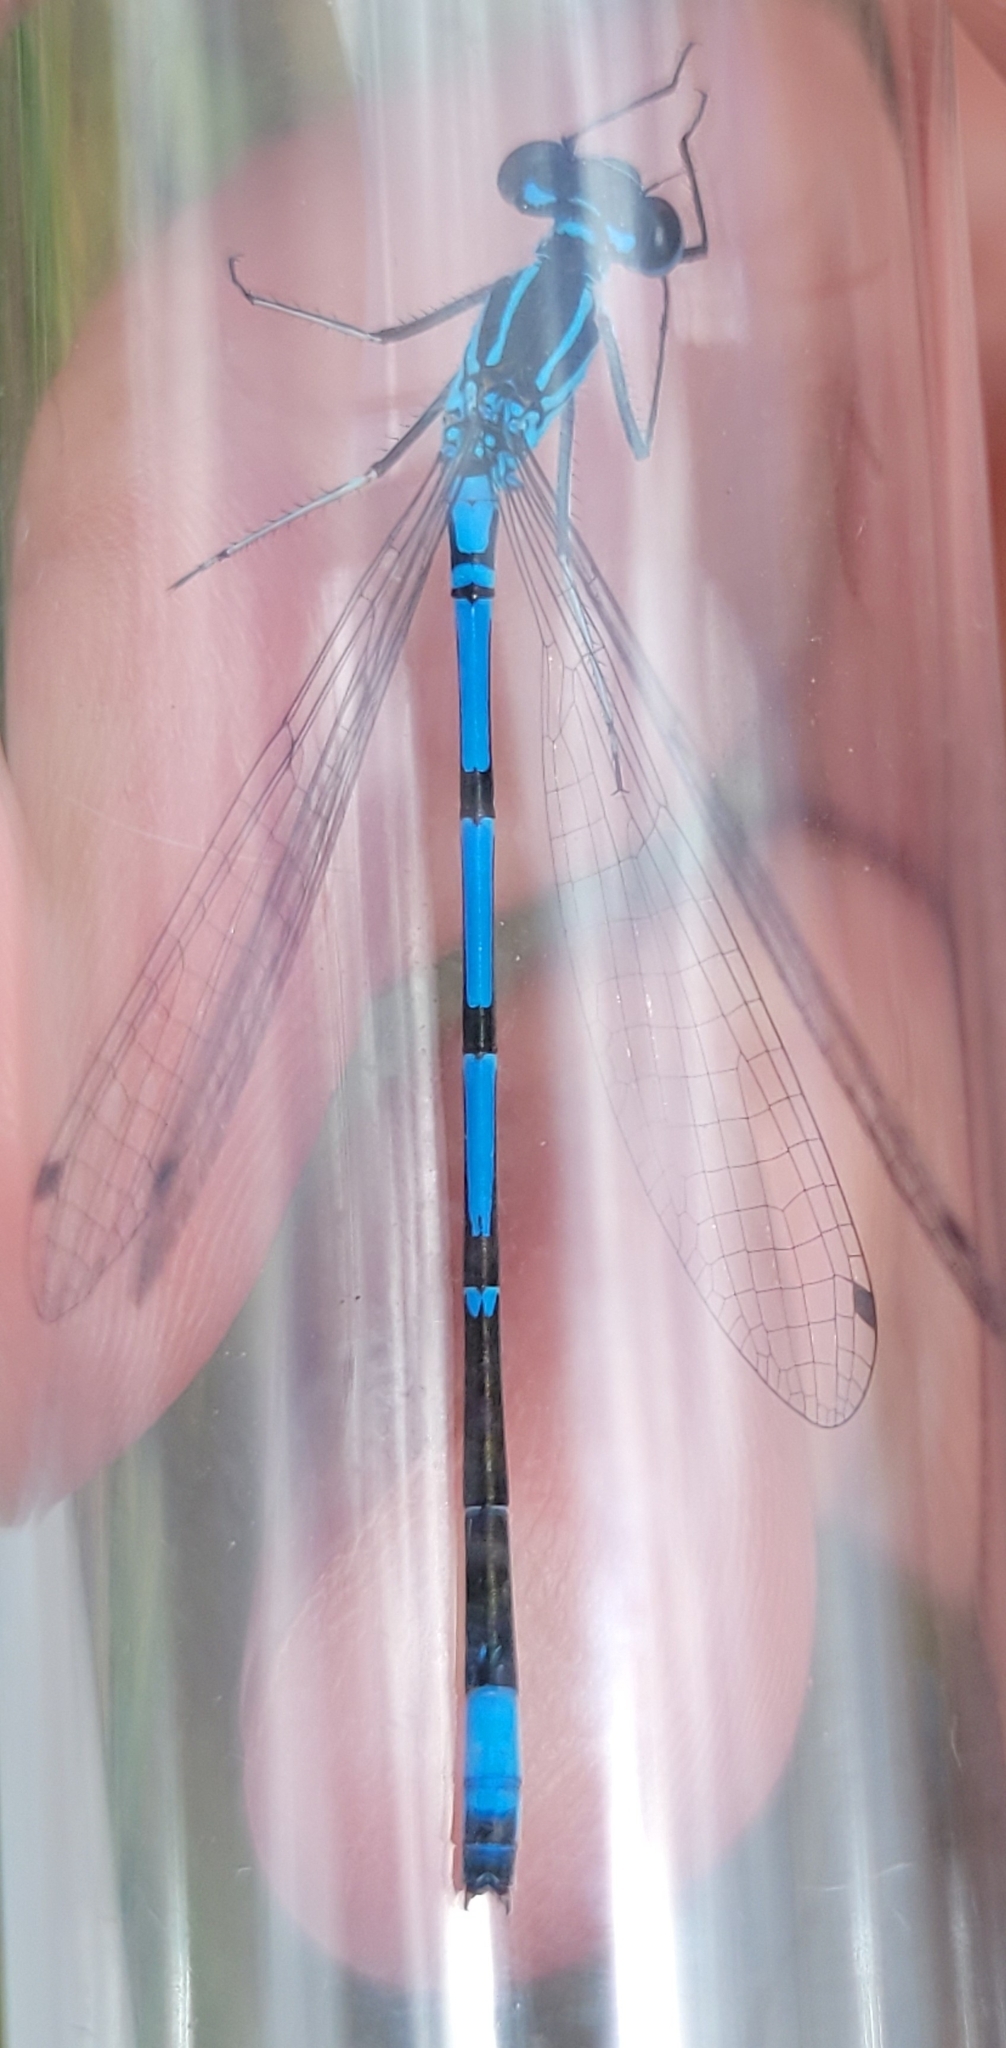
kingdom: Animalia
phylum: Arthropoda
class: Insecta
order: Odonata
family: Coenagrionidae
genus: Coenagrion
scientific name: Coenagrion syriacum
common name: Syrian bluet
